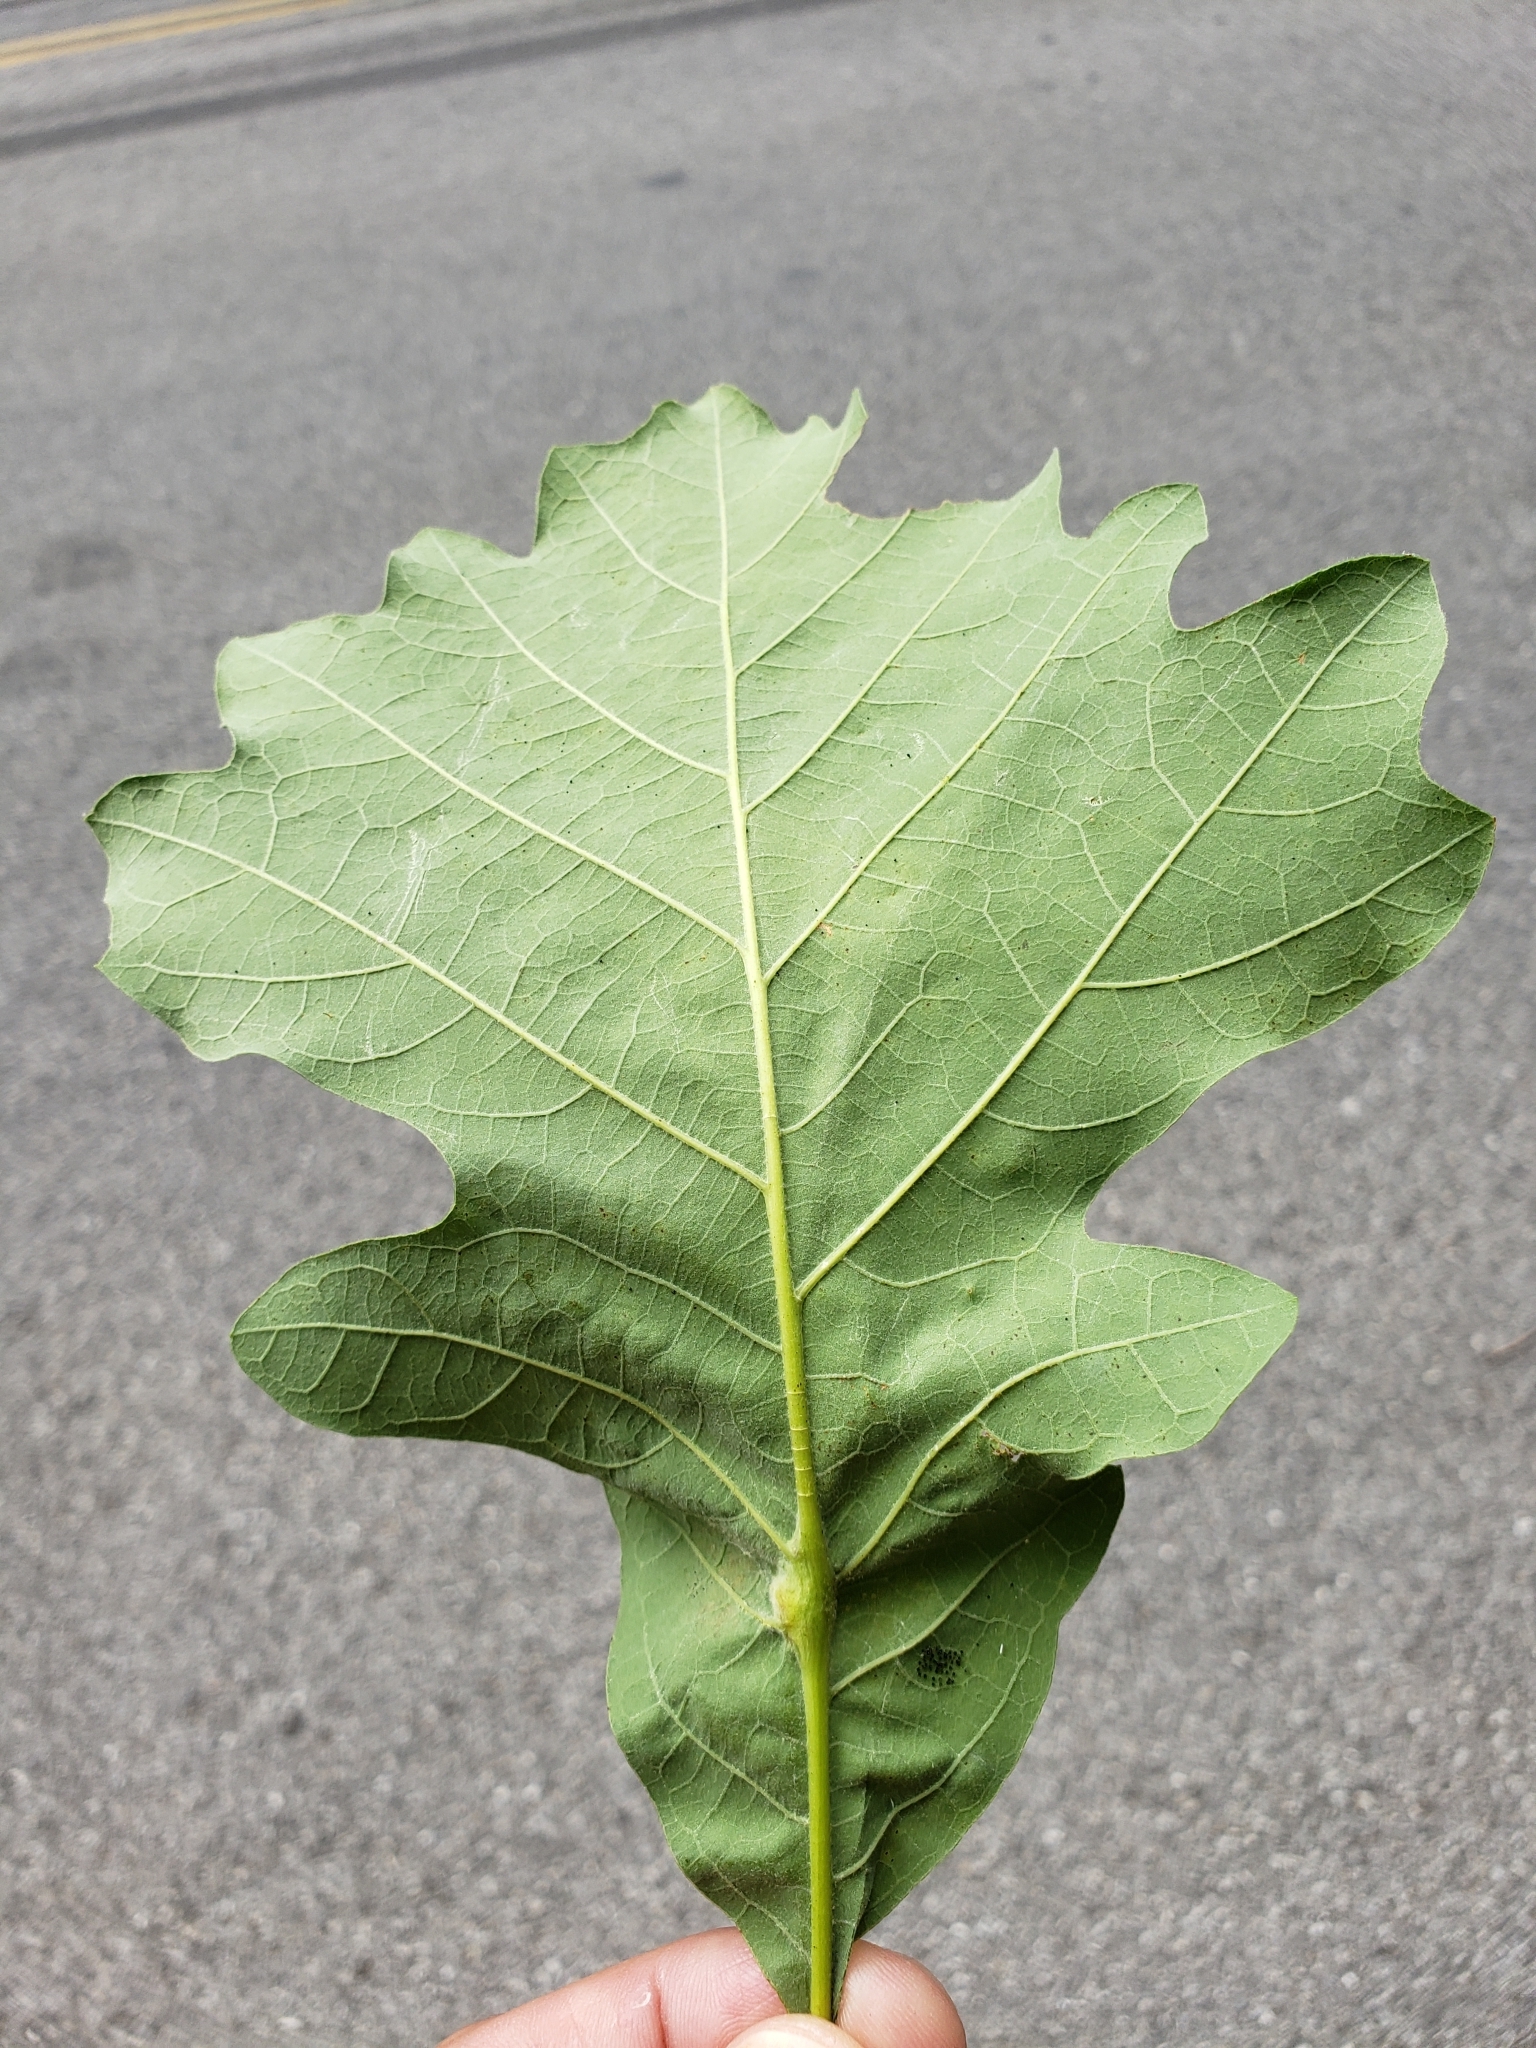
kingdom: Animalia
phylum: Arthropoda
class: Insecta
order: Hymenoptera
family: Cynipidae
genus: Bassettia
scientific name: Bassettia flavipes
